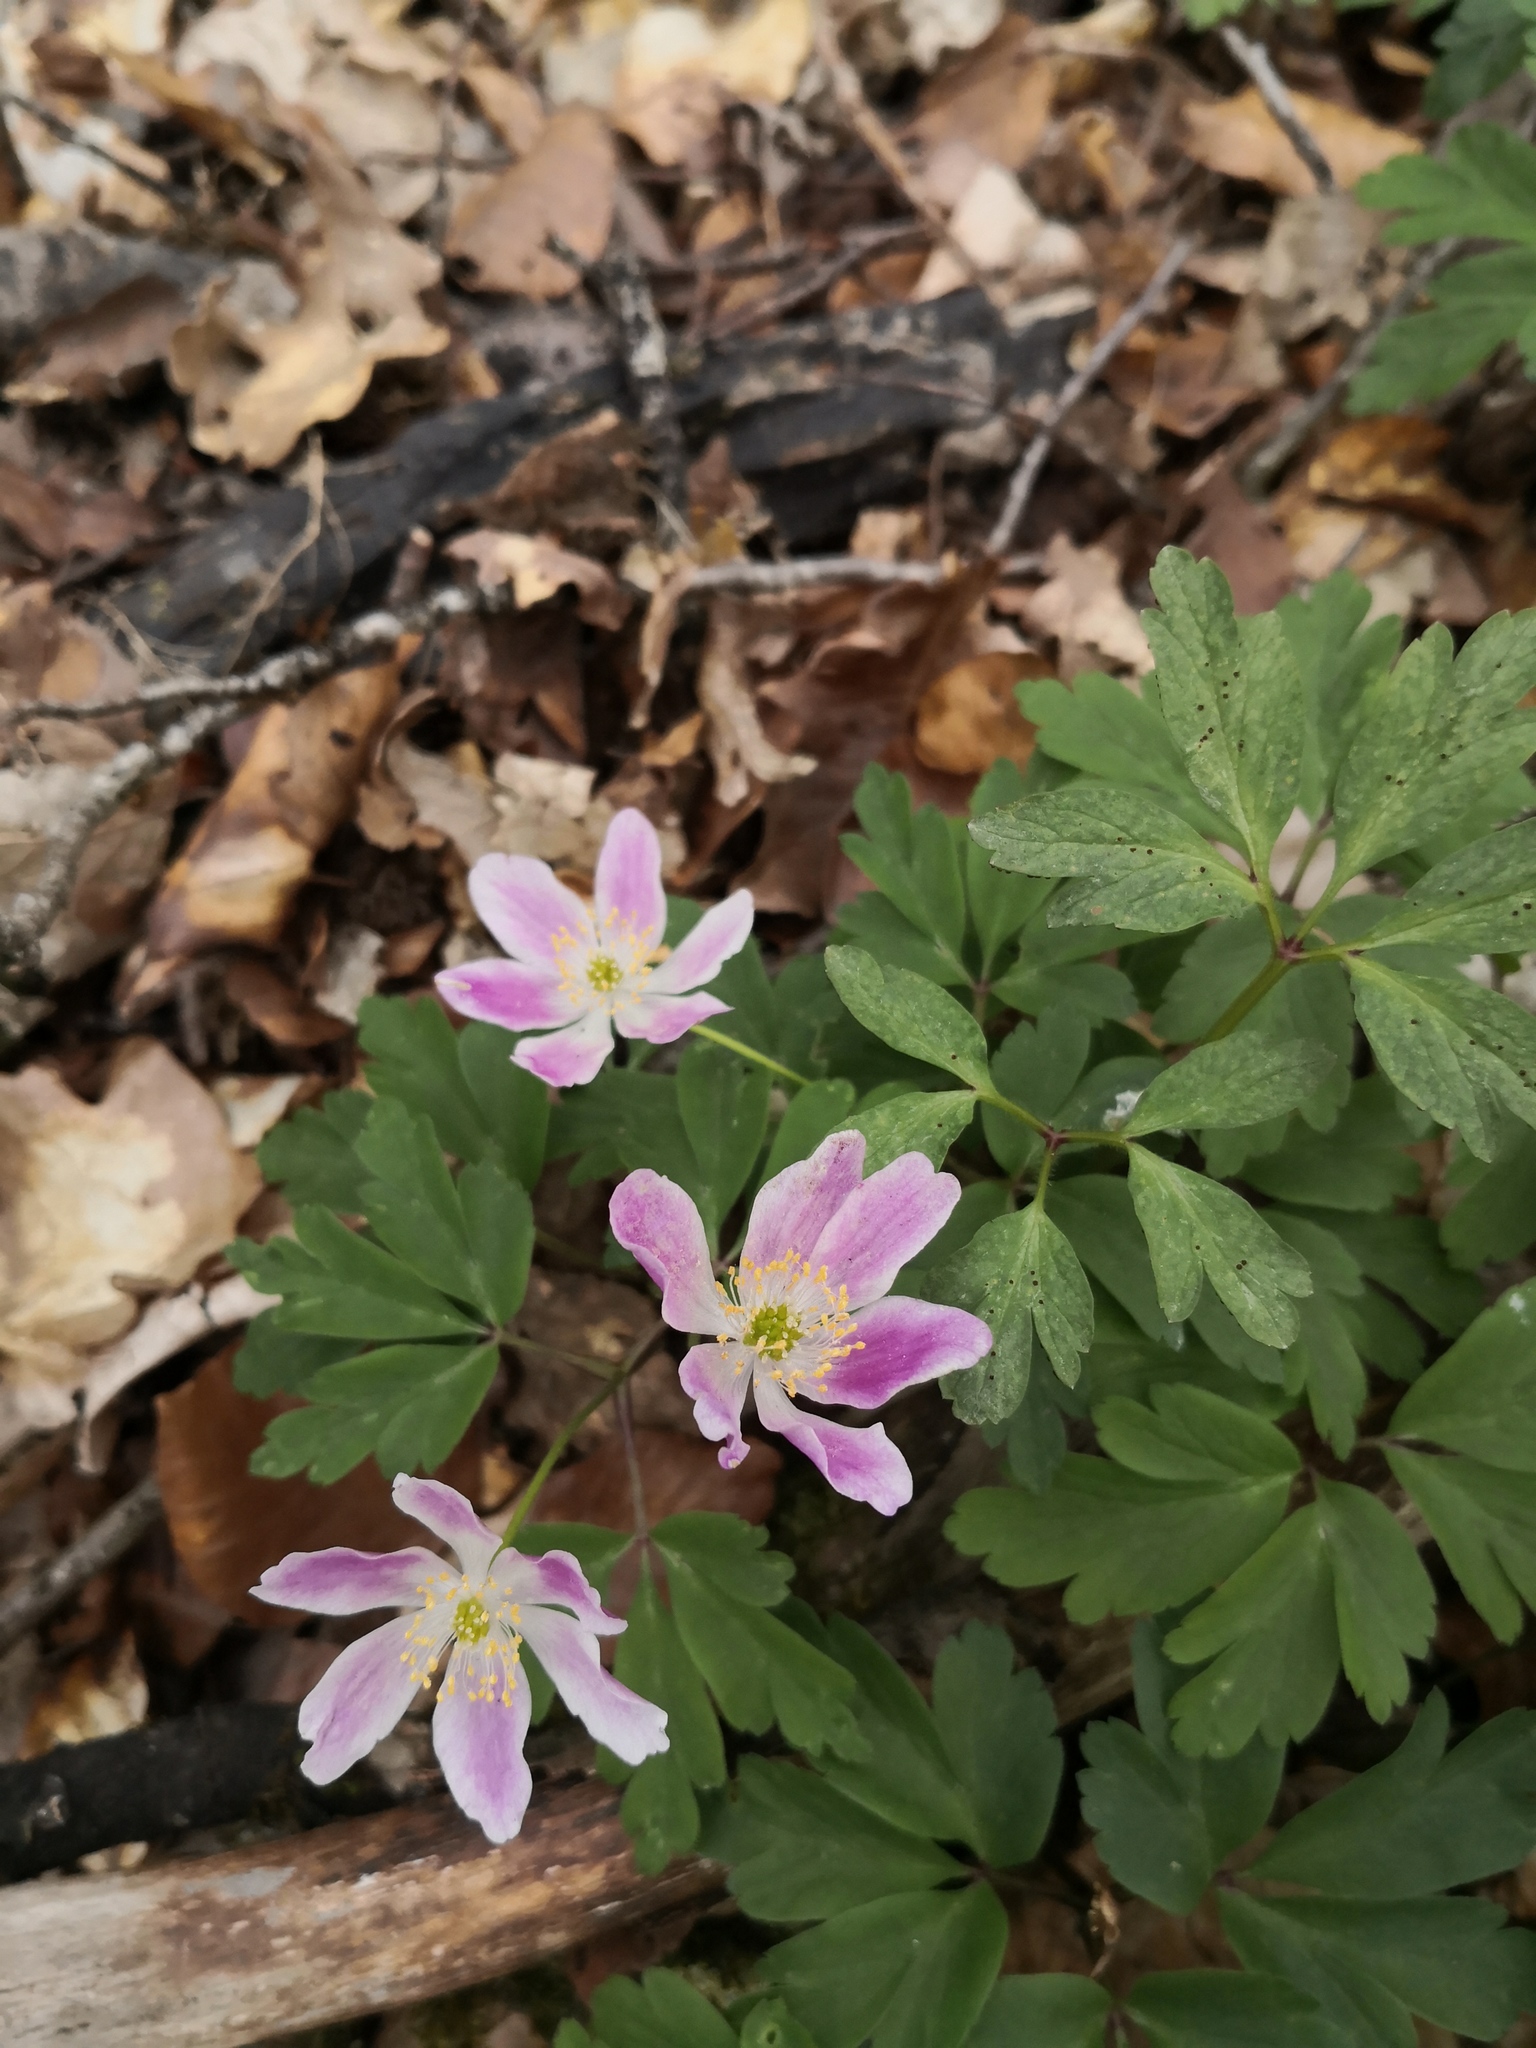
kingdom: Plantae
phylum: Tracheophyta
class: Magnoliopsida
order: Ranunculales
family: Ranunculaceae
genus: Anemone
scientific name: Anemone nemorosa
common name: Wood anemone
